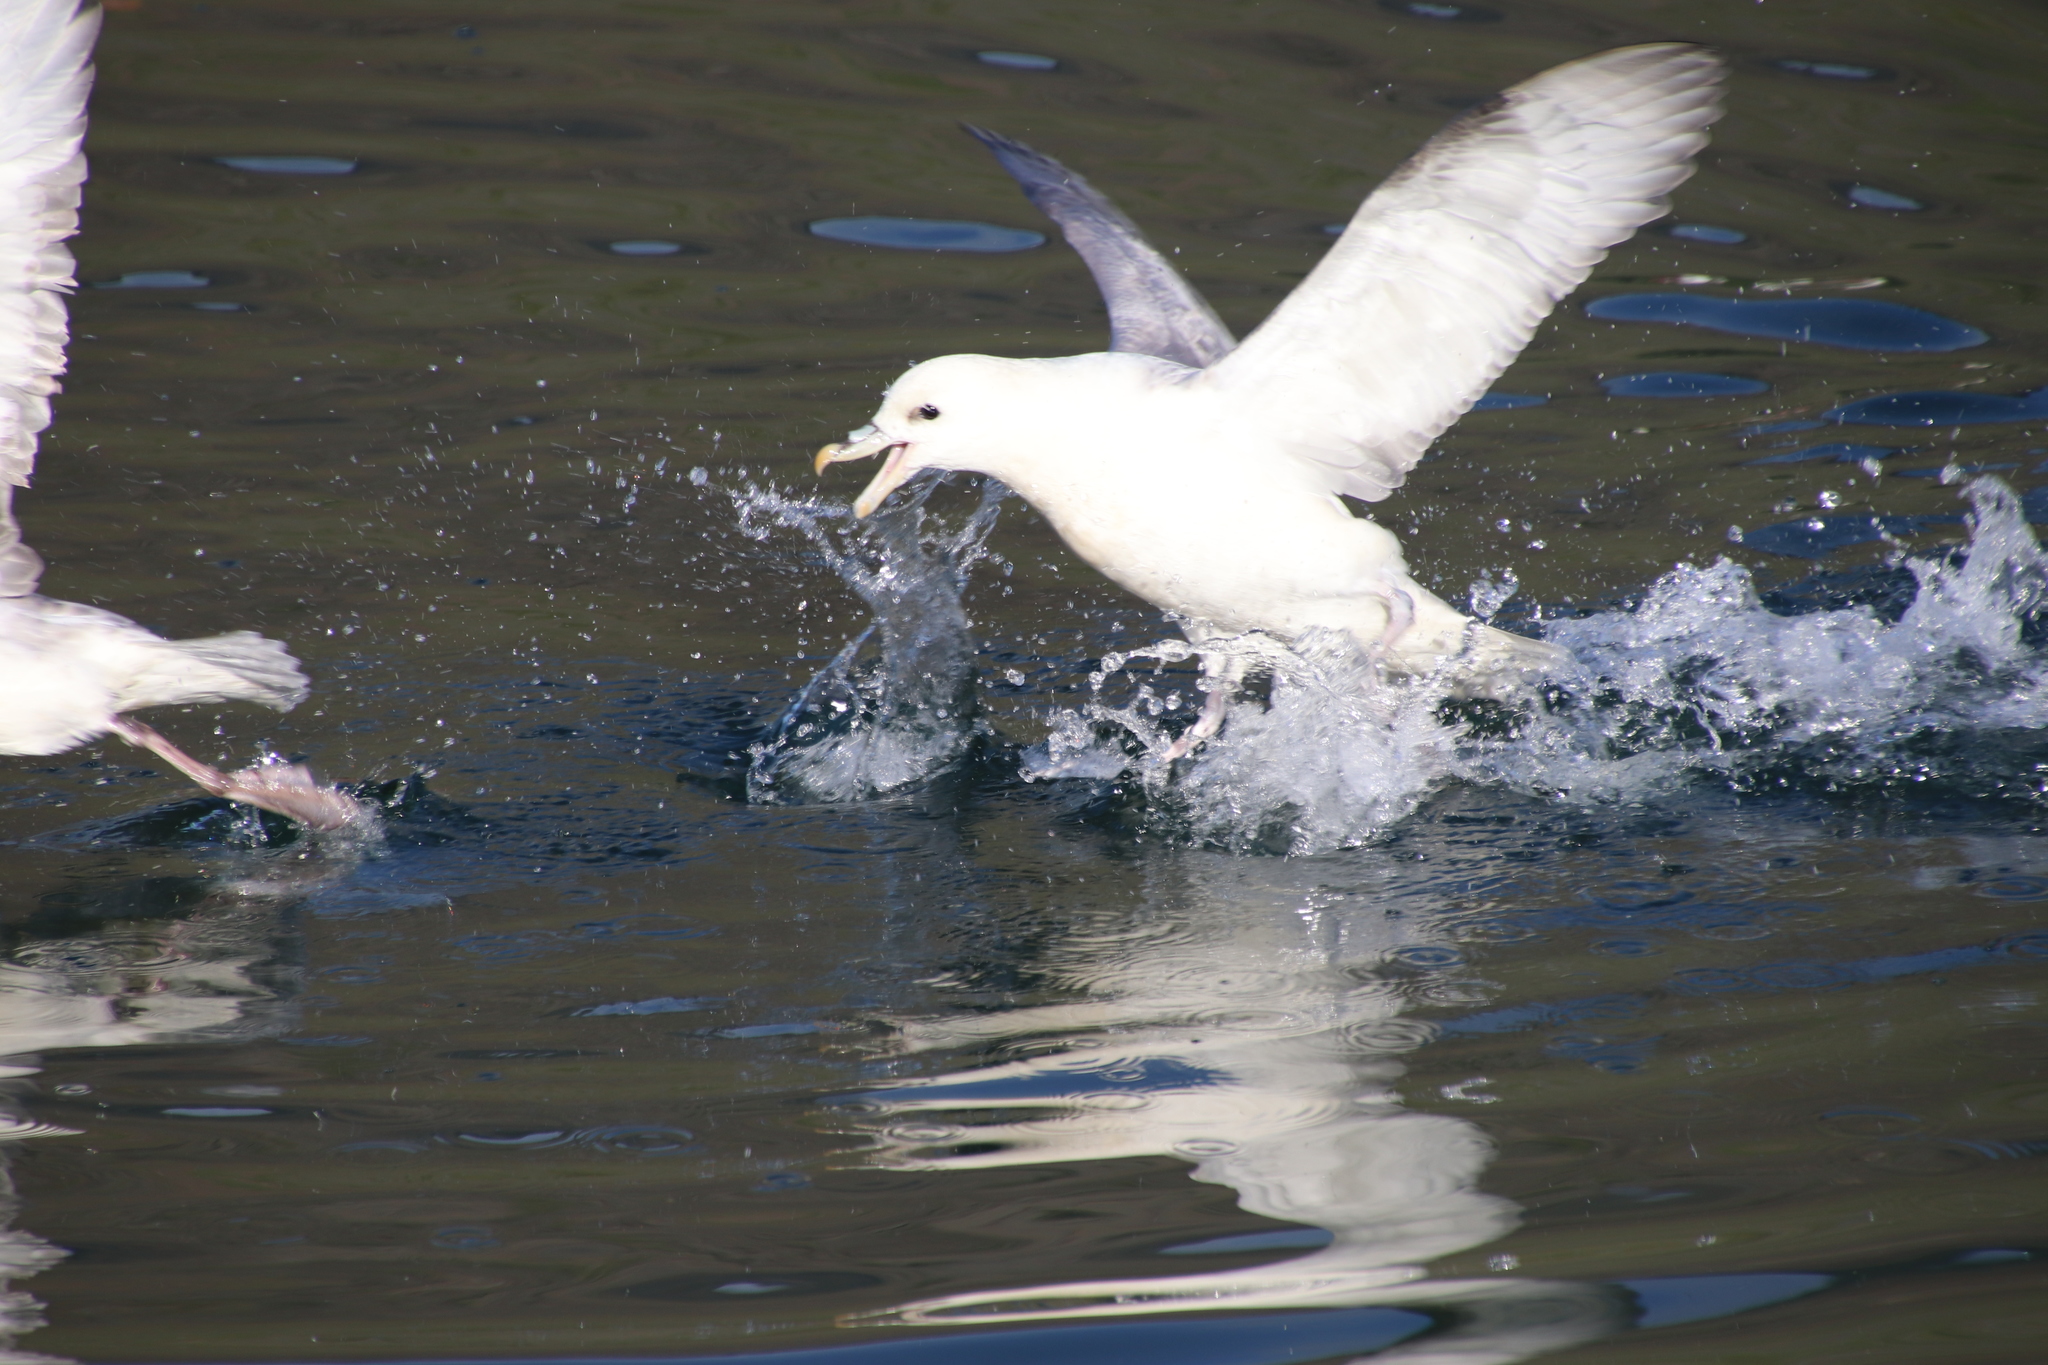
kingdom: Animalia
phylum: Chordata
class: Aves
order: Procellariiformes
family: Procellariidae
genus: Fulmarus
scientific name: Fulmarus glacialis
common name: Northern fulmar
